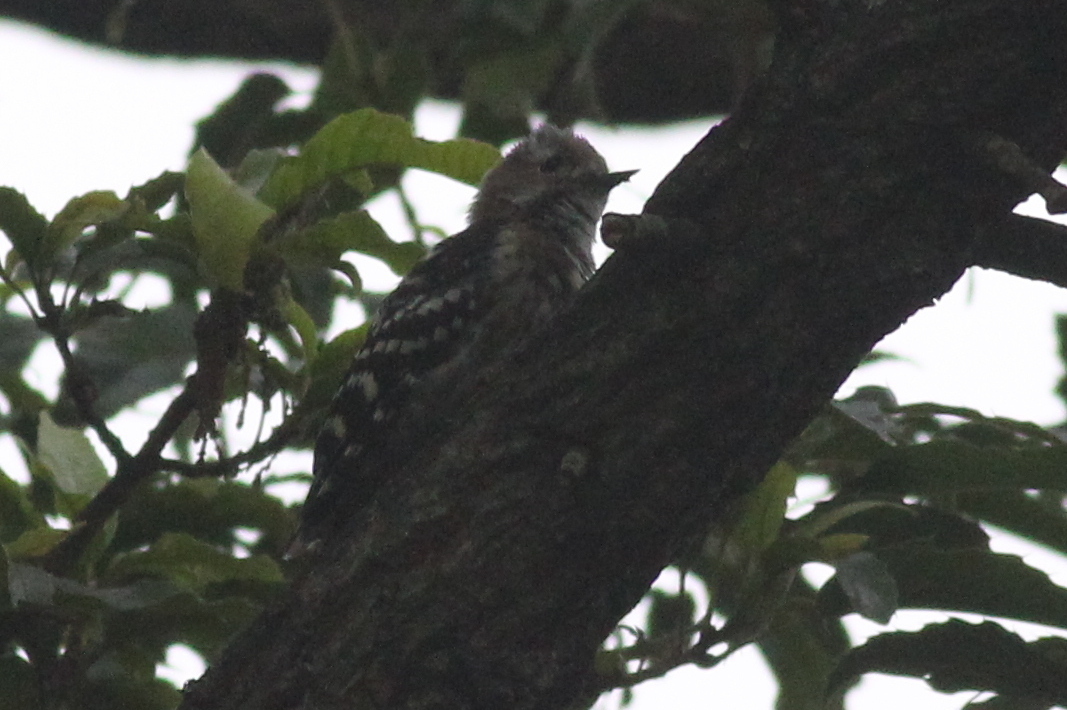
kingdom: Animalia
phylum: Chordata
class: Aves
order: Piciformes
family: Picidae
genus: Yungipicus
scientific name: Yungipicus kizuki
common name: Japanese pygmy woodpecker
